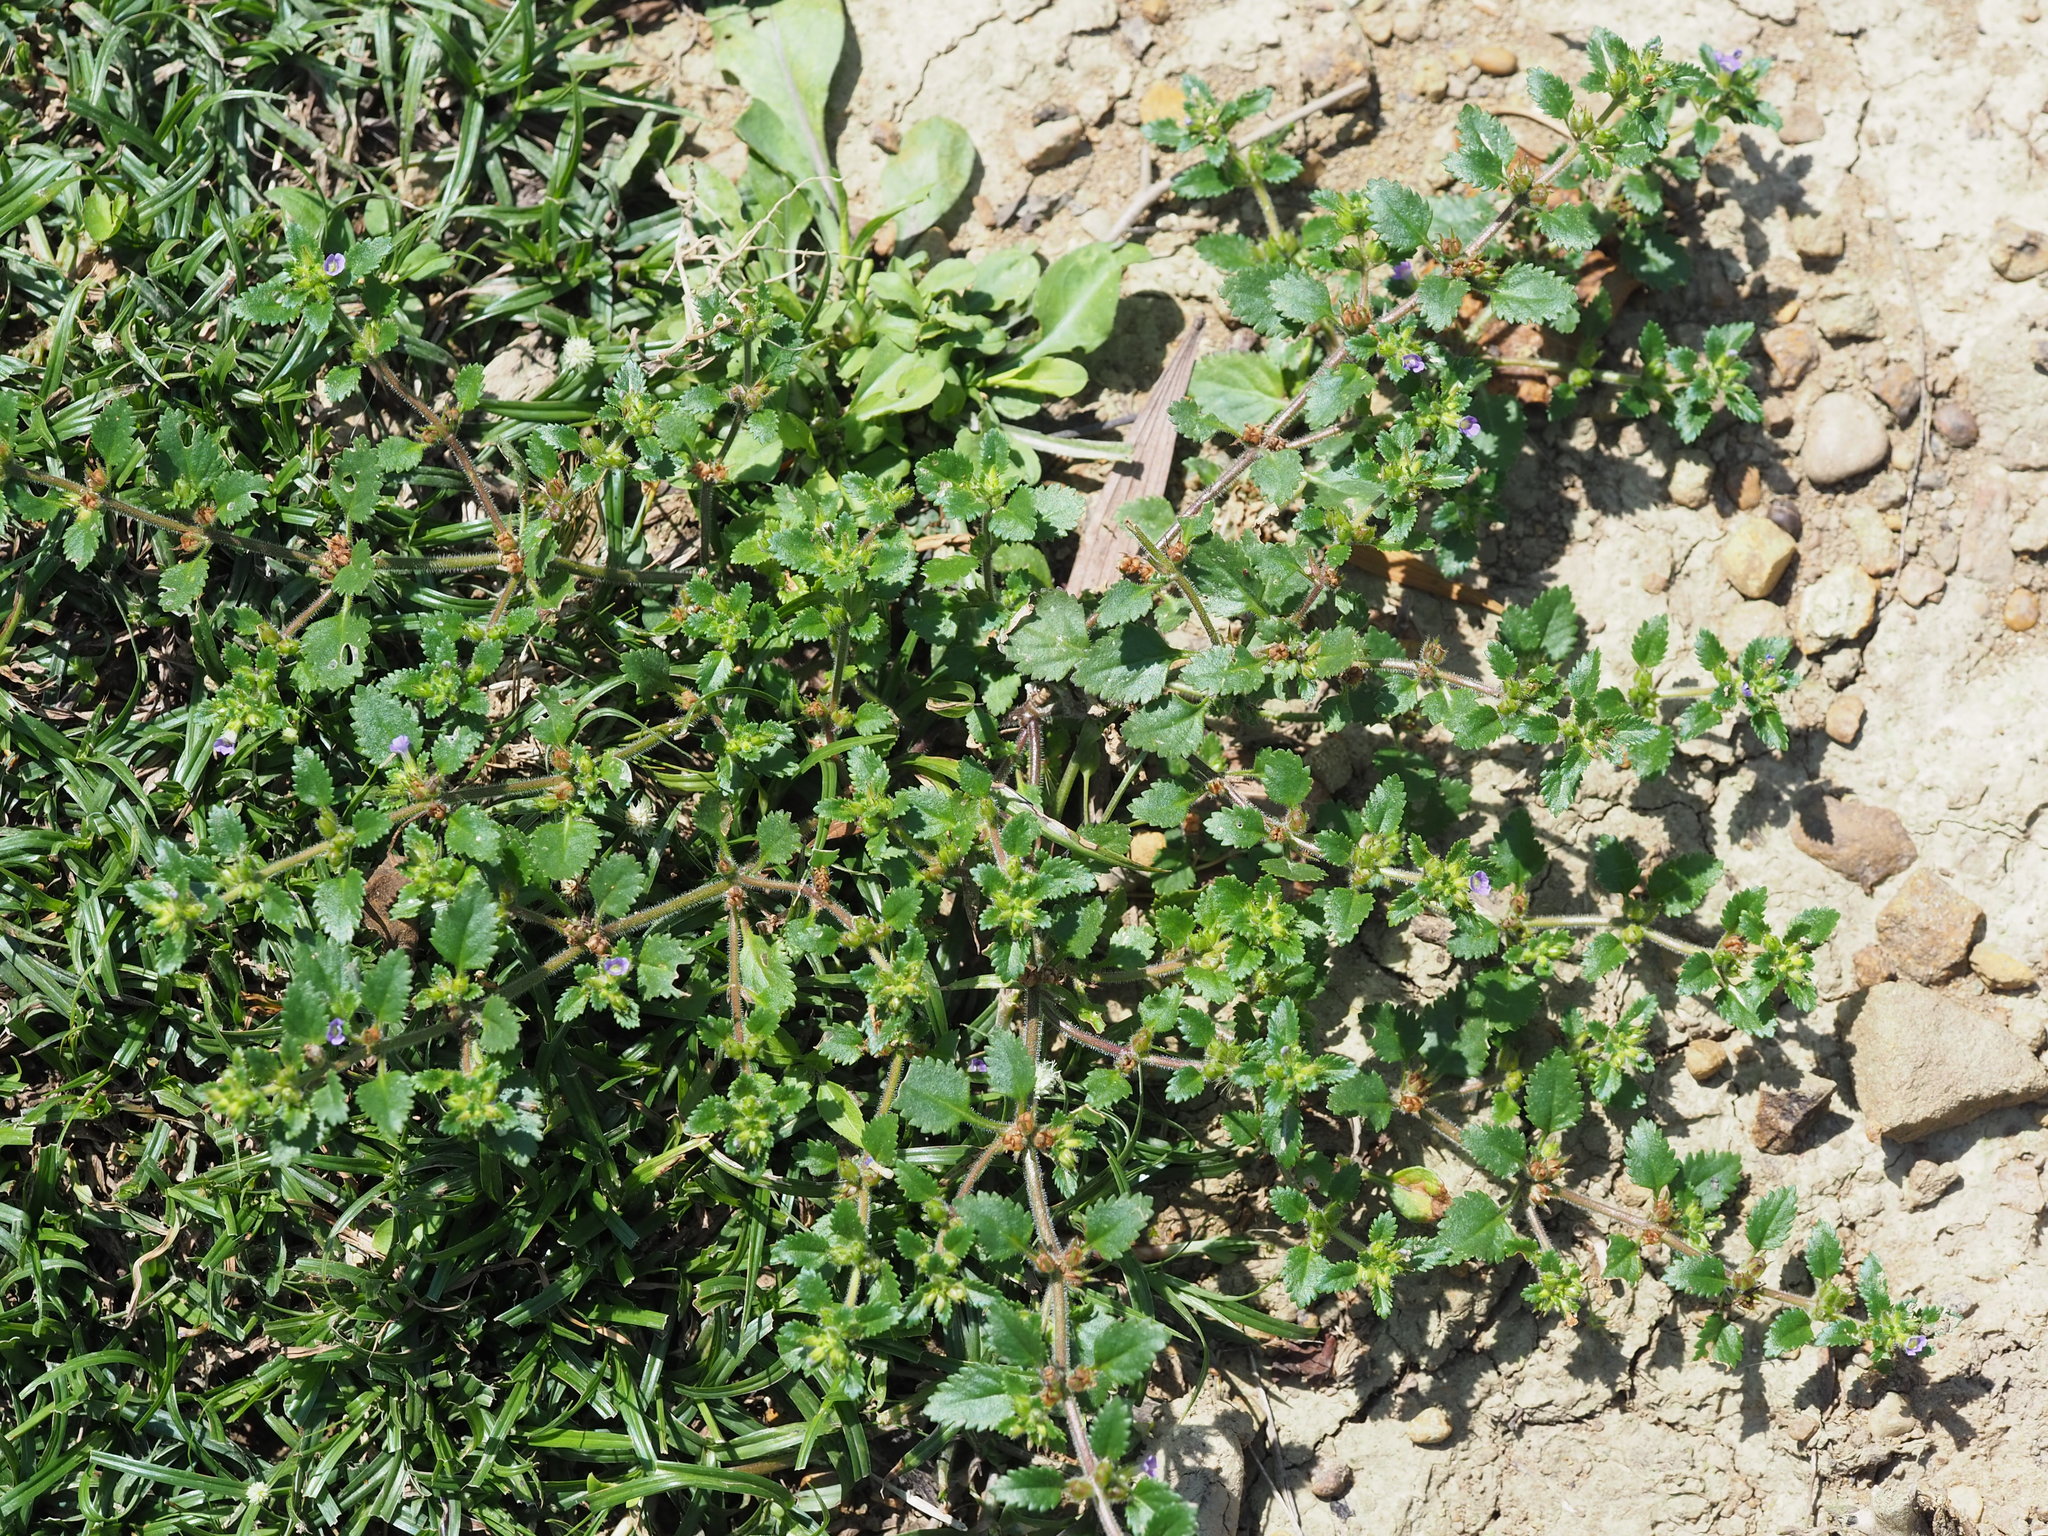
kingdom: Plantae
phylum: Tracheophyta
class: Magnoliopsida
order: Lamiales
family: Plantaginaceae
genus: Stemodia
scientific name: Stemodia verticillata
